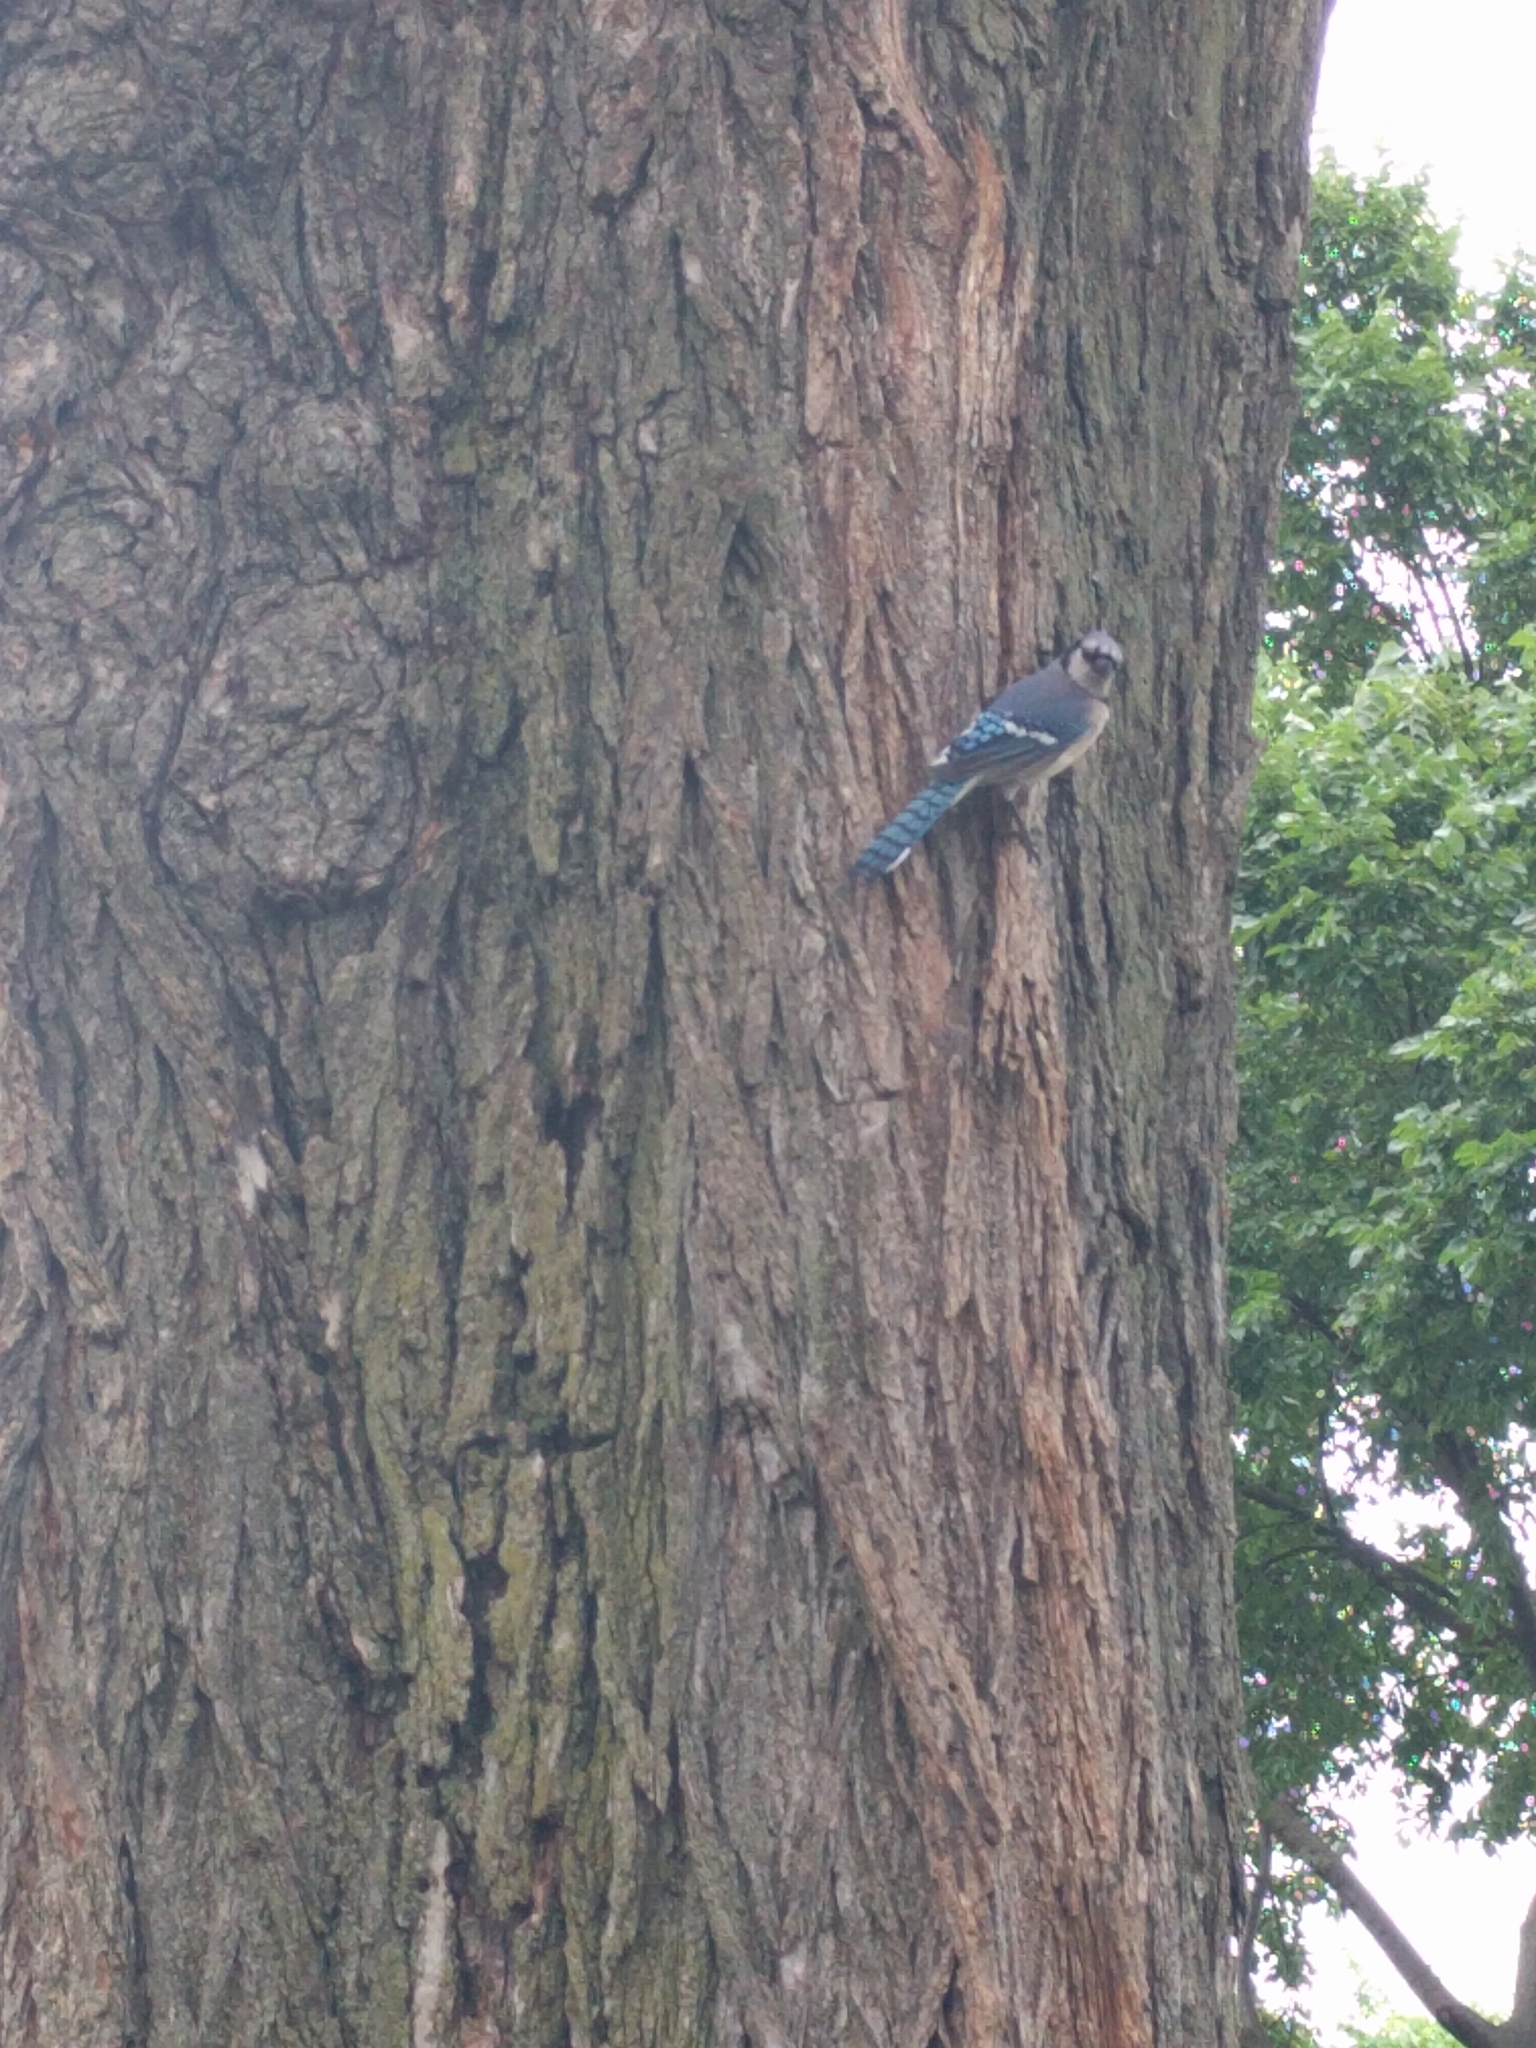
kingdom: Animalia
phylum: Chordata
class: Aves
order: Passeriformes
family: Corvidae
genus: Cyanocitta
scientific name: Cyanocitta cristata
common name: Blue jay
